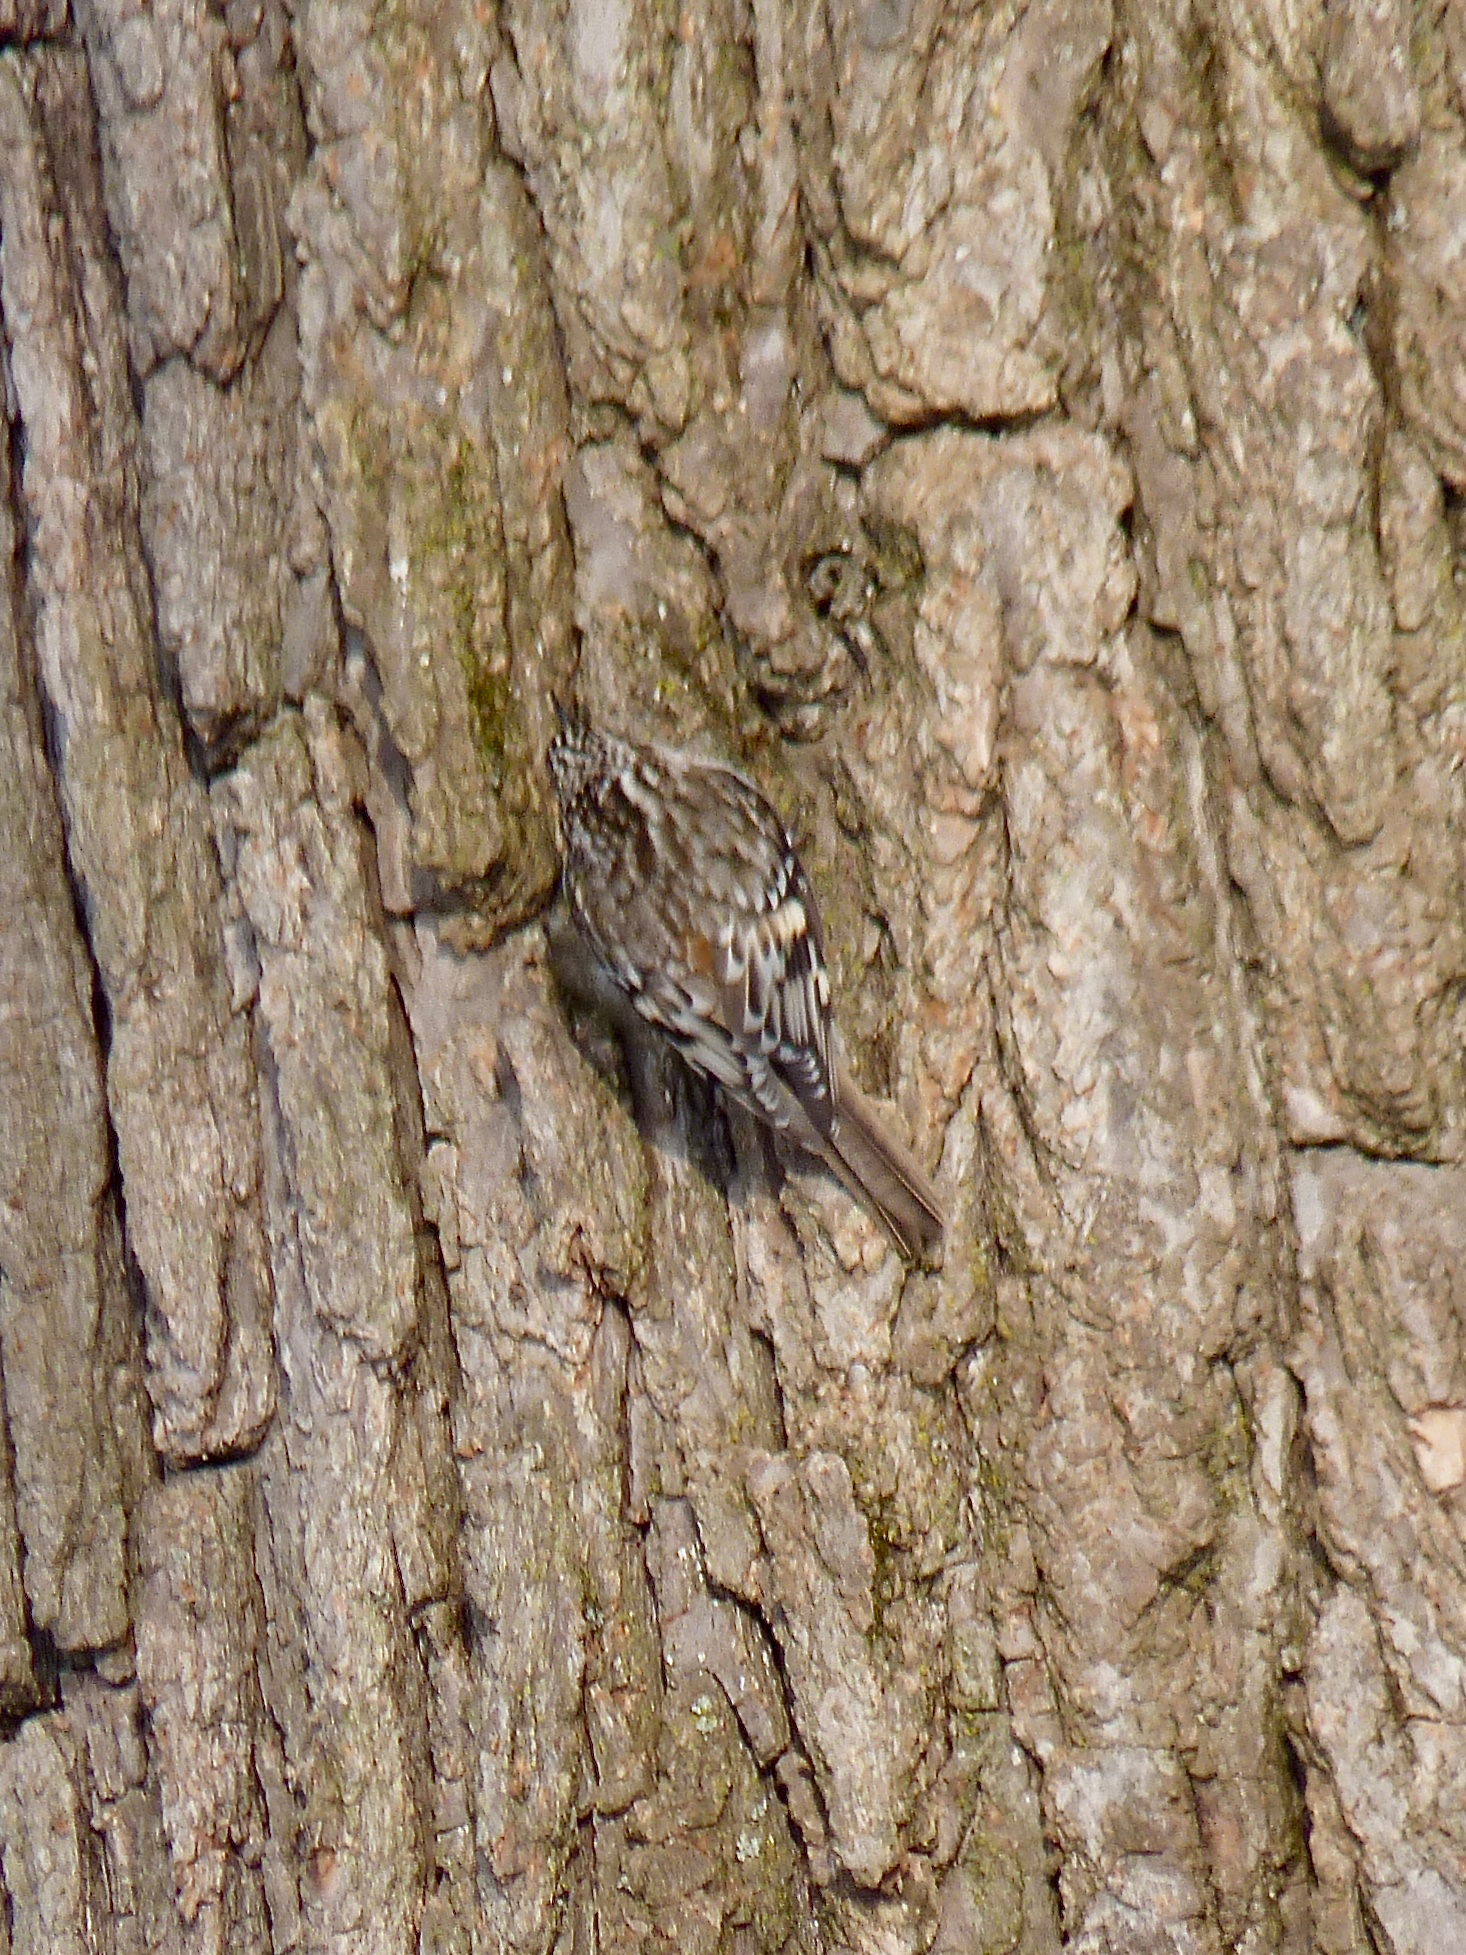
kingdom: Animalia
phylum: Chordata
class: Aves
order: Passeriformes
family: Certhiidae
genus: Certhia
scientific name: Certhia americana
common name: Brown creeper
